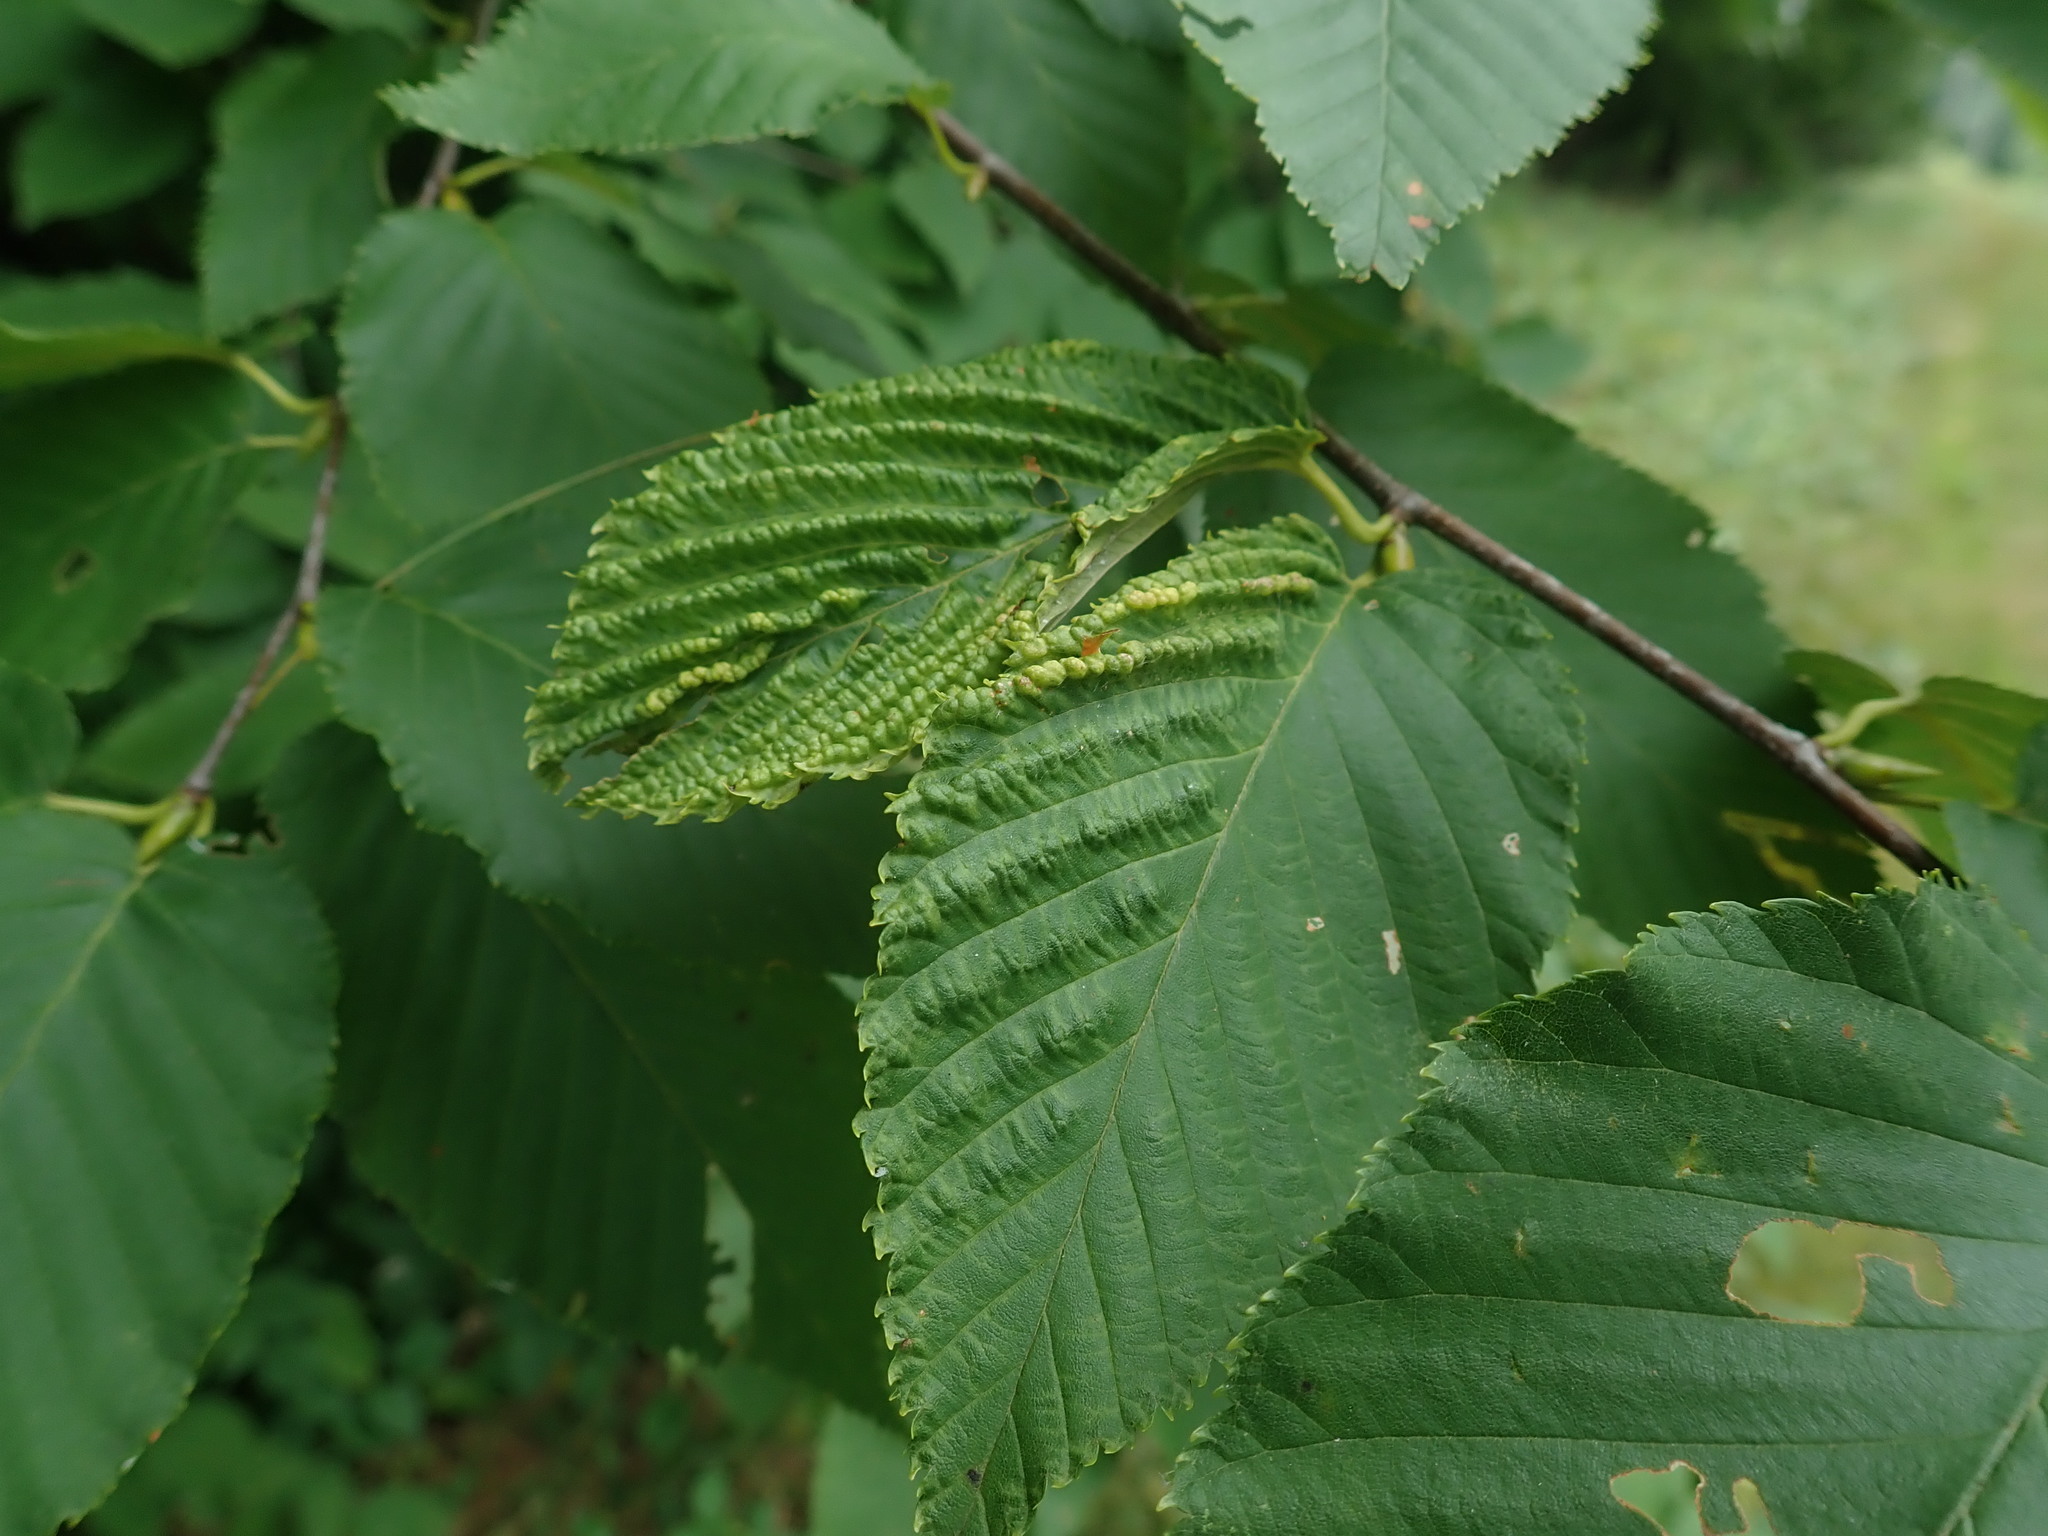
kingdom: Animalia
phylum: Arthropoda
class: Insecta
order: Hemiptera
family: Aphididae
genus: Hamamelistes
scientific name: Hamamelistes spinosus
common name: Witch hazel gall aphid
